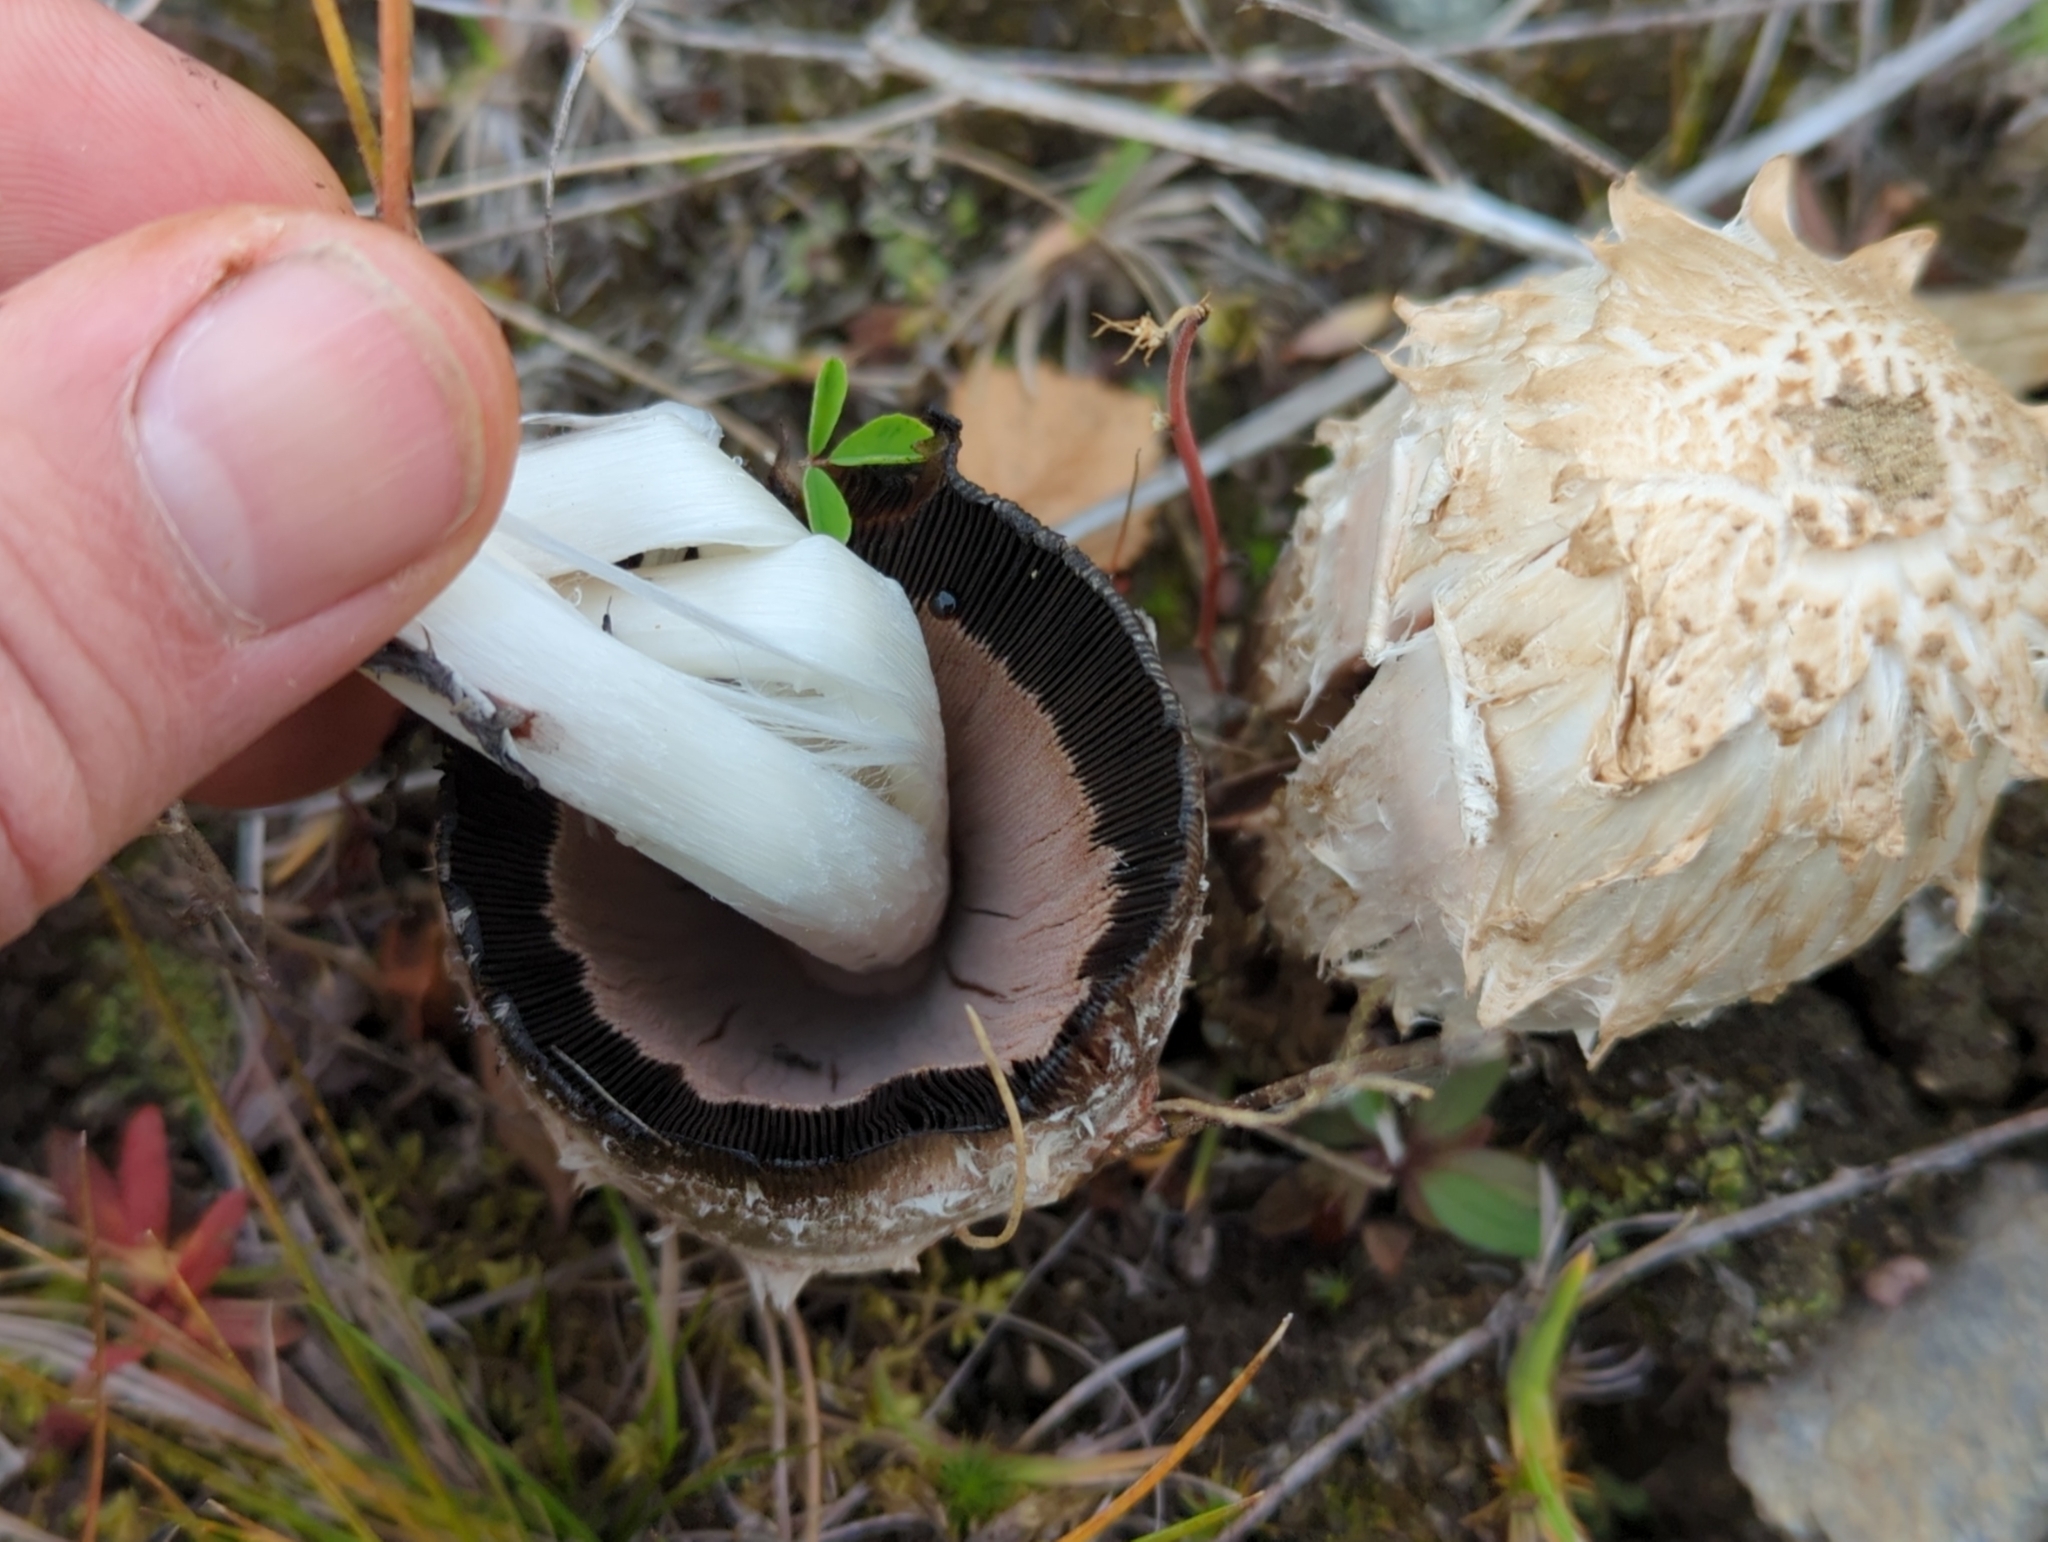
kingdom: Fungi
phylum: Basidiomycota
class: Agaricomycetes
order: Agaricales
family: Agaricaceae
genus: Coprinus
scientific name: Coprinus comatus
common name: Lawyer's wig
